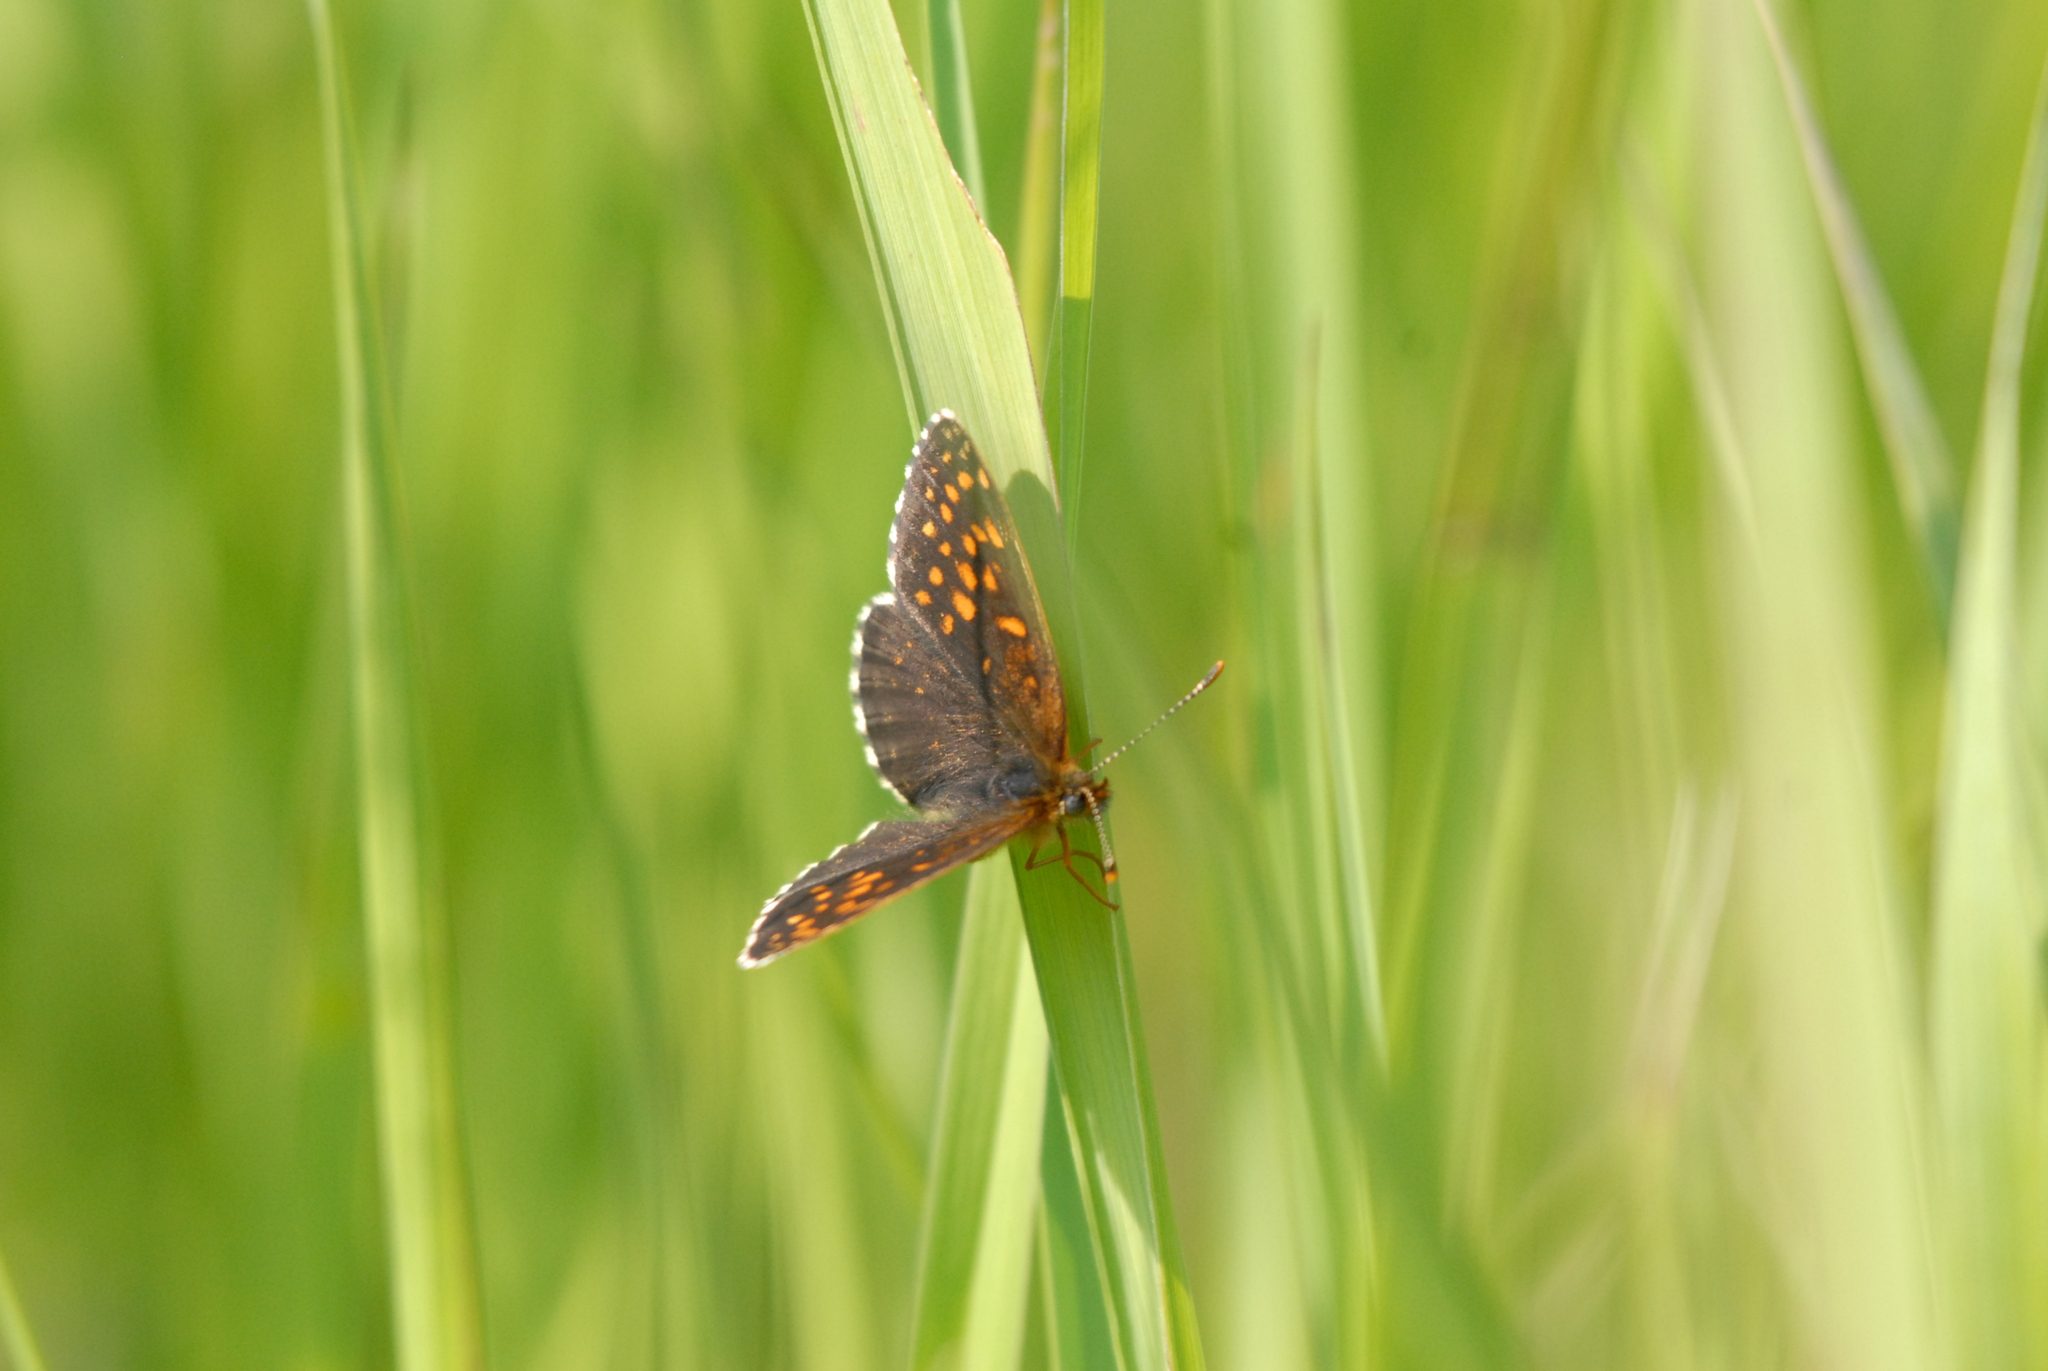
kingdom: Animalia
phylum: Arthropoda
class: Insecta
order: Lepidoptera
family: Nymphalidae
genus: Melitaea
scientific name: Melitaea diamina
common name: False heath fritillary
